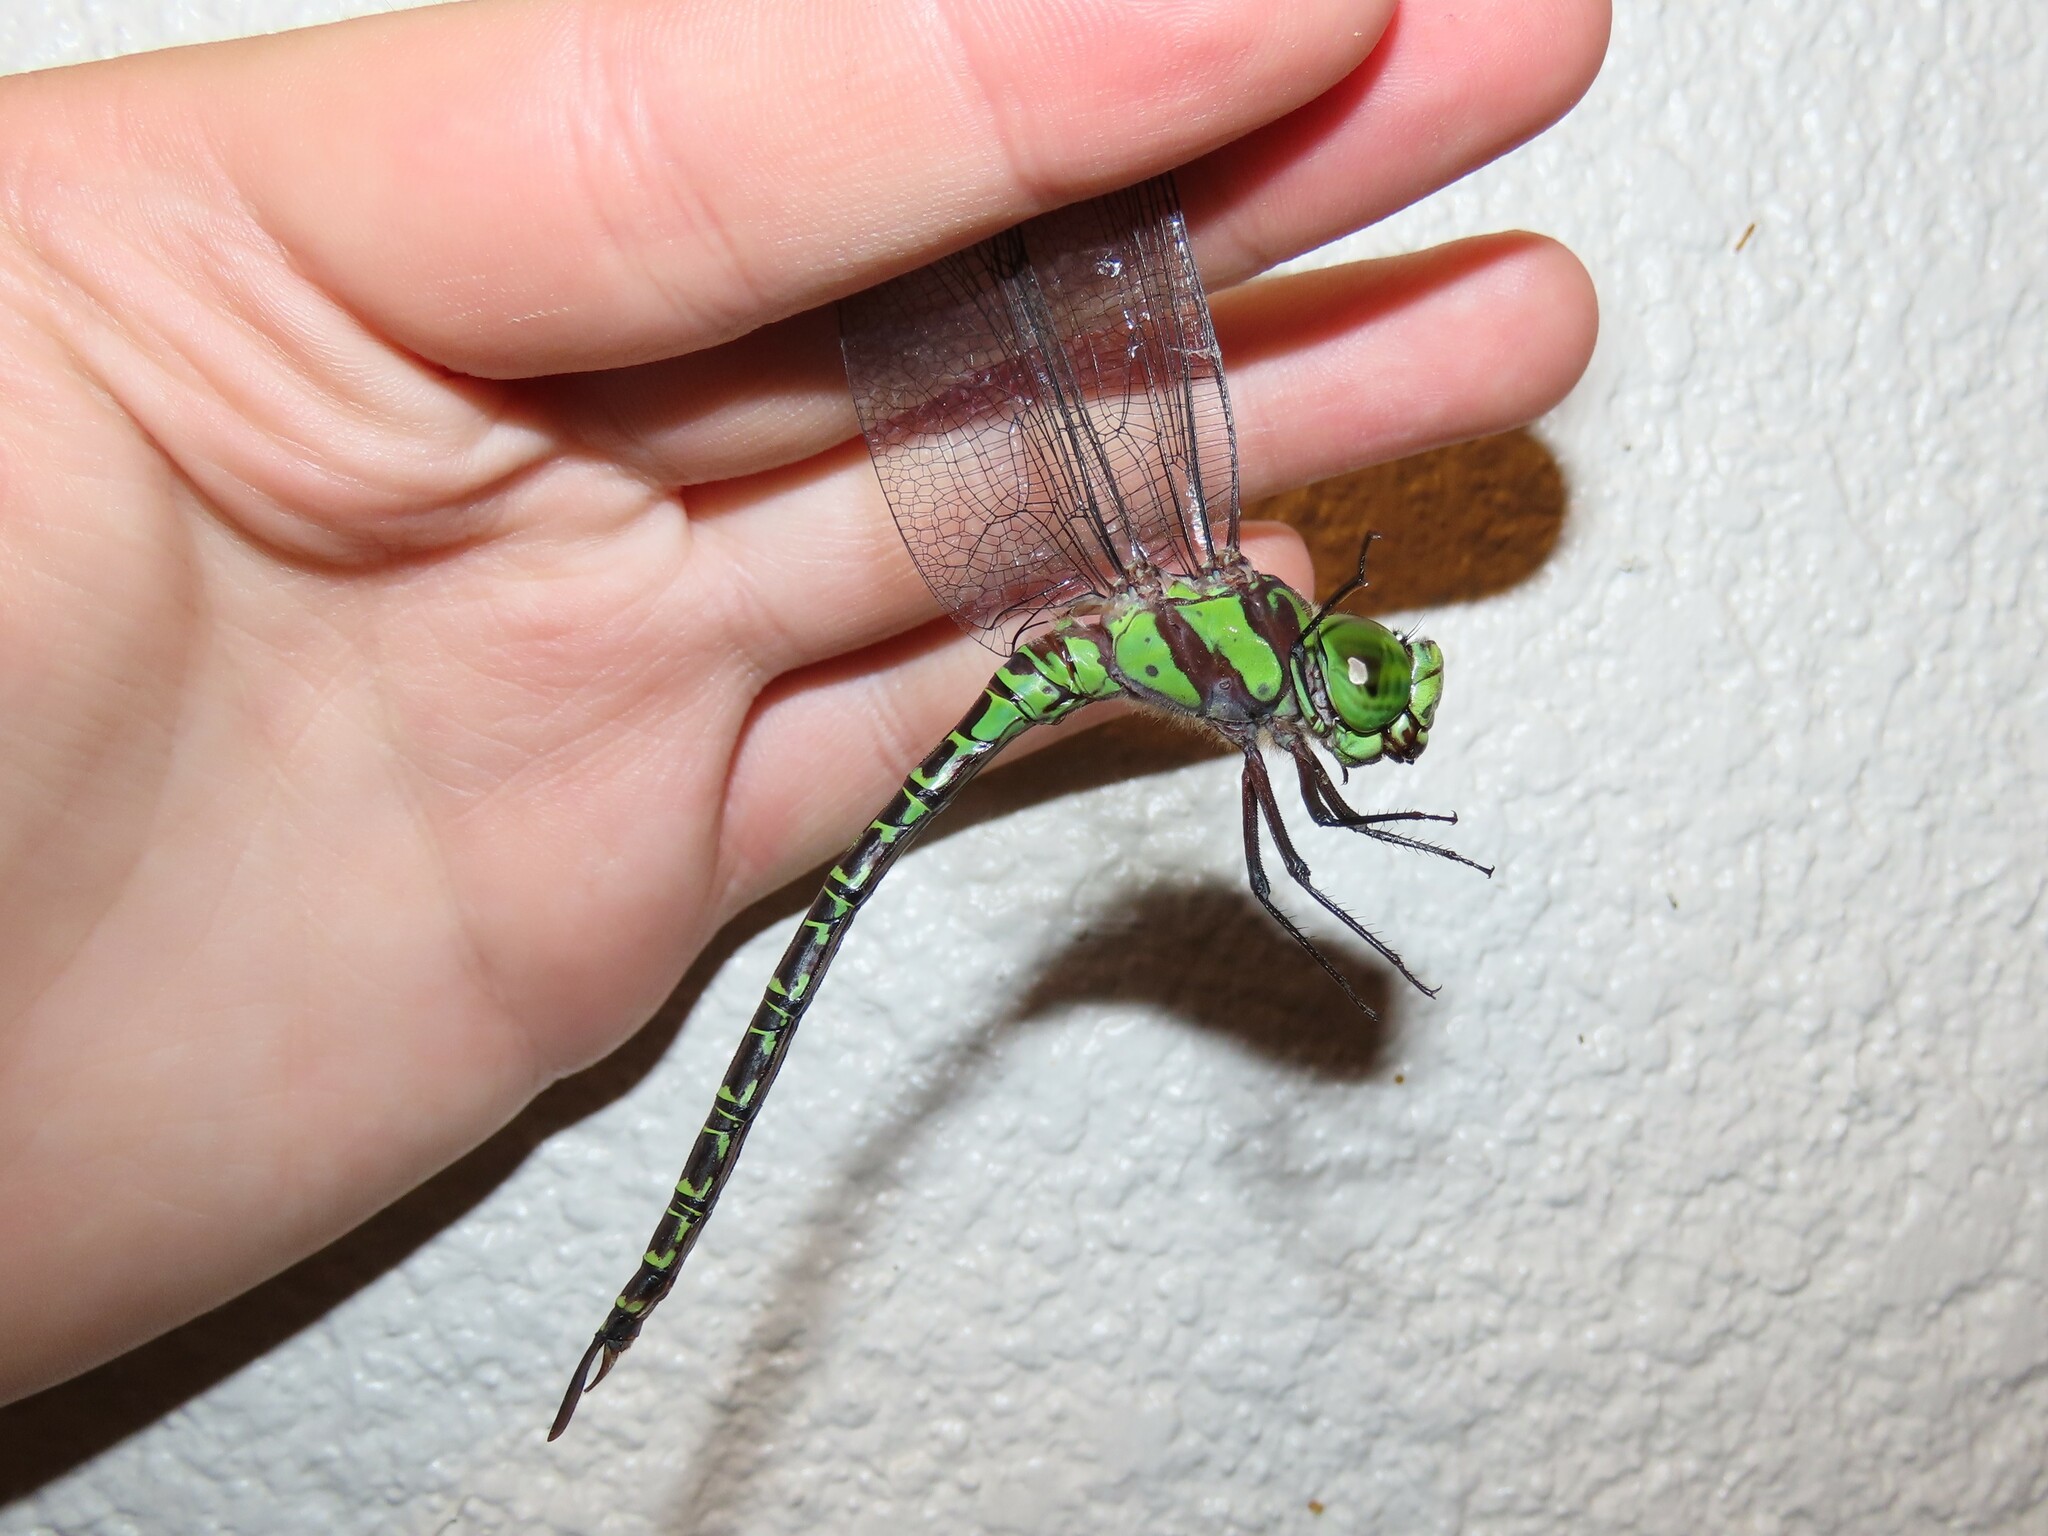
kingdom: Animalia
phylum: Arthropoda
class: Insecta
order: Odonata
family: Aeshnidae
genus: Coryphaeschna
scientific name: Coryphaeschna ingens
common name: Regal darner
